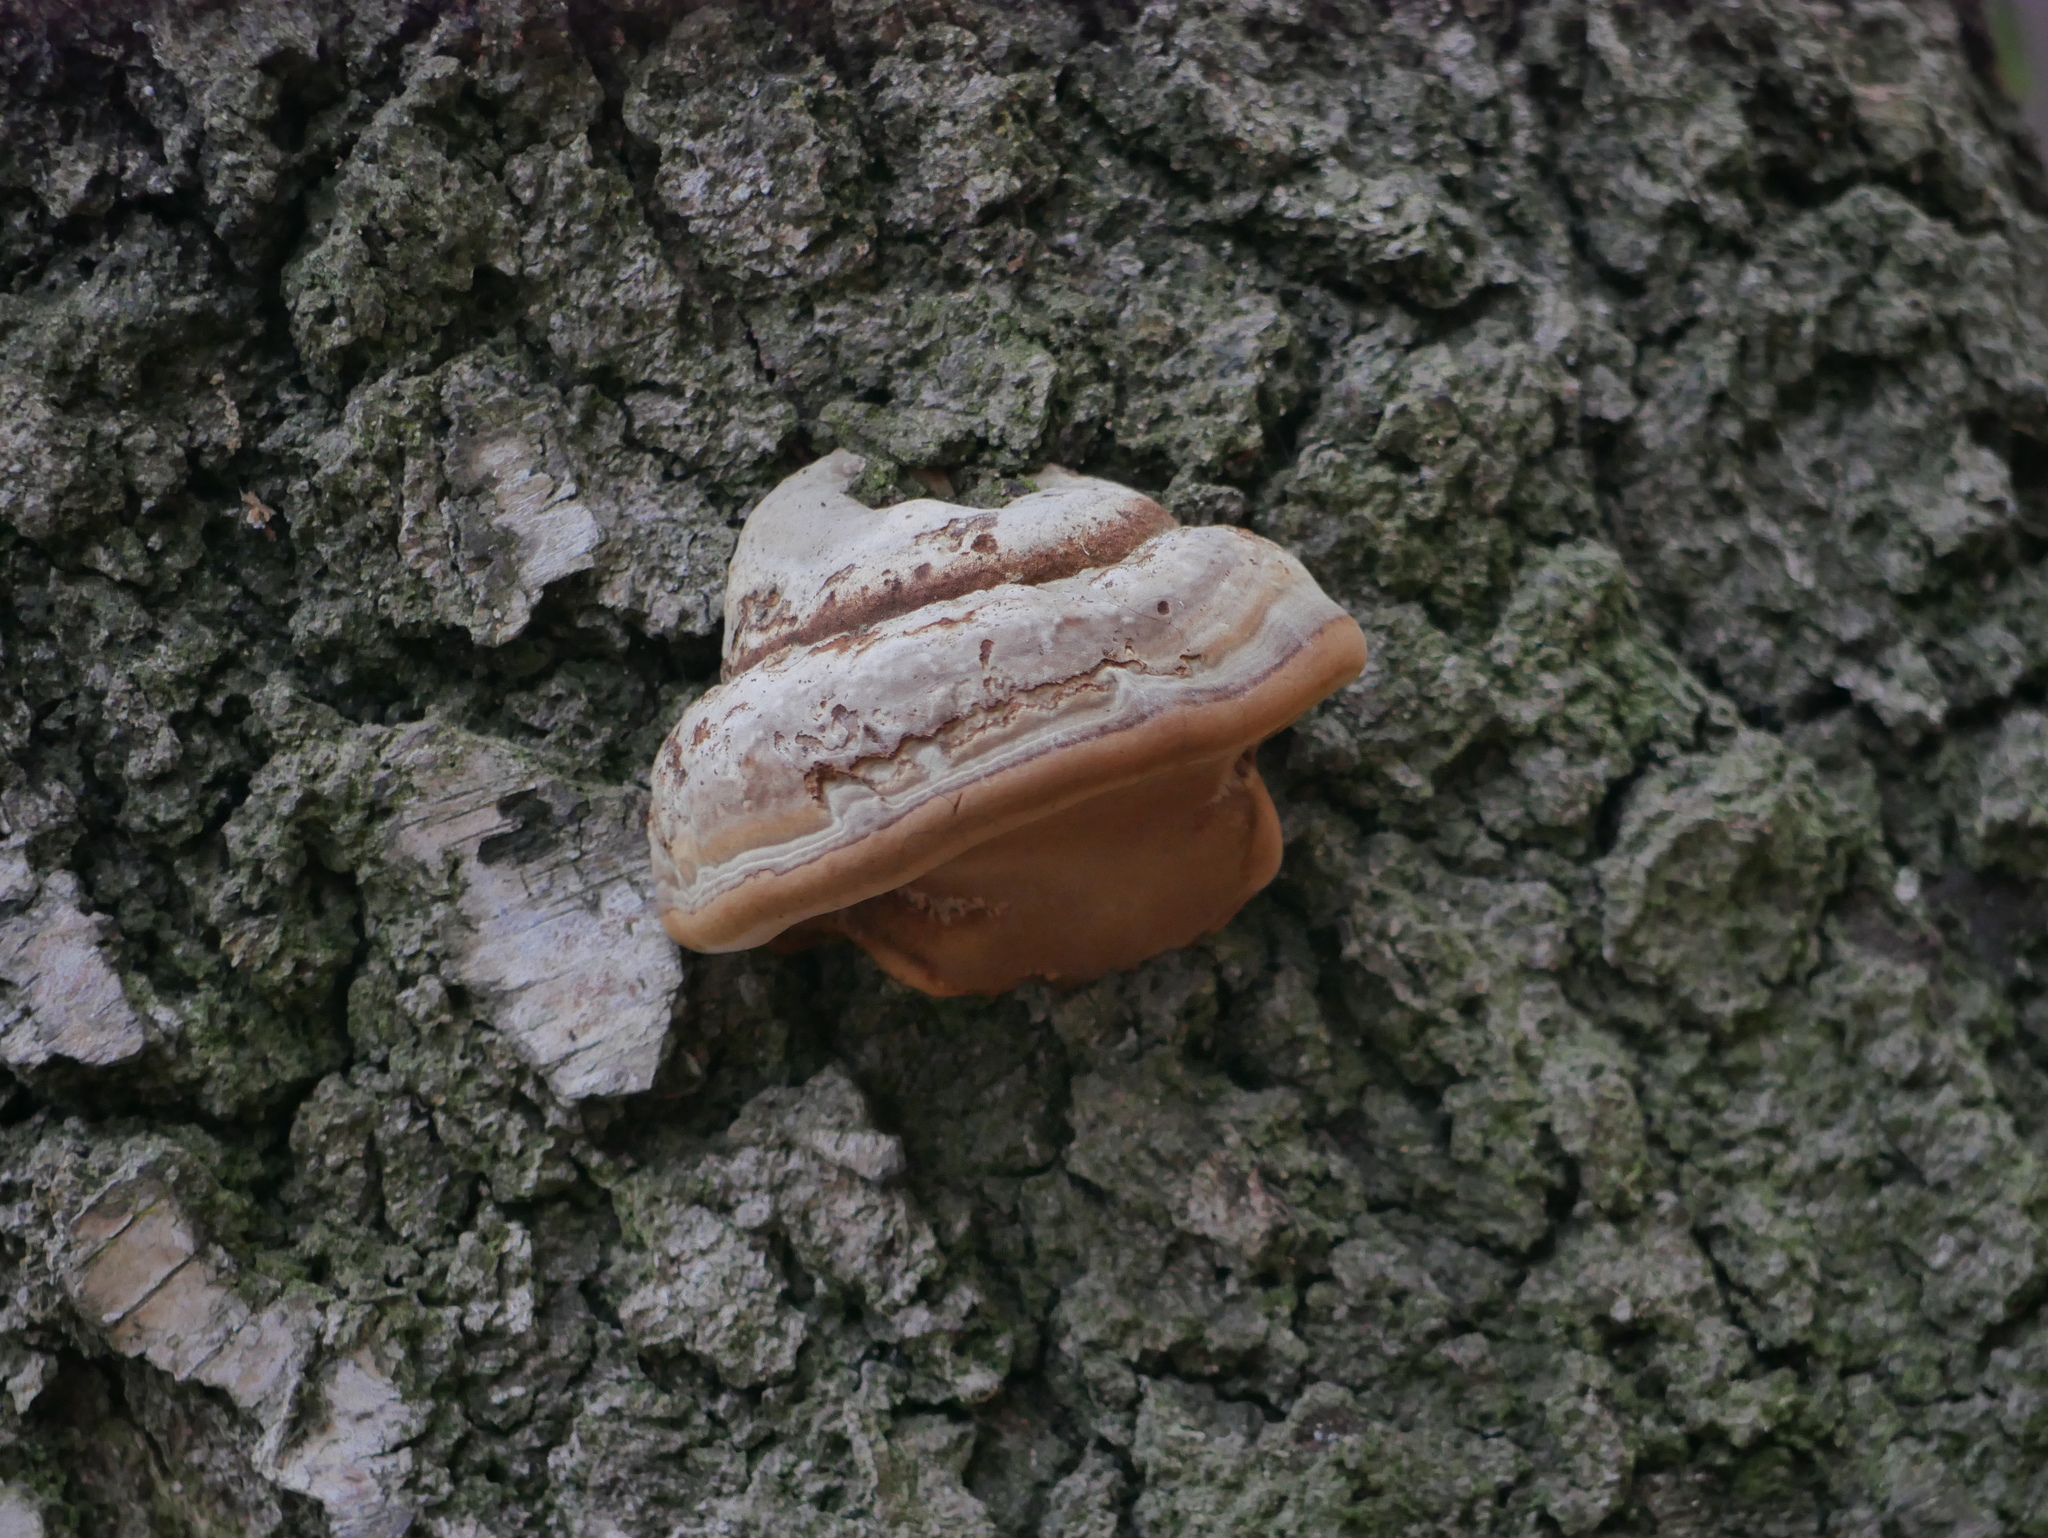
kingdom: Fungi
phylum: Basidiomycota
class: Agaricomycetes
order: Polyporales
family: Polyporaceae
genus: Fomes
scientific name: Fomes fomentarius
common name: Hoof fungus
